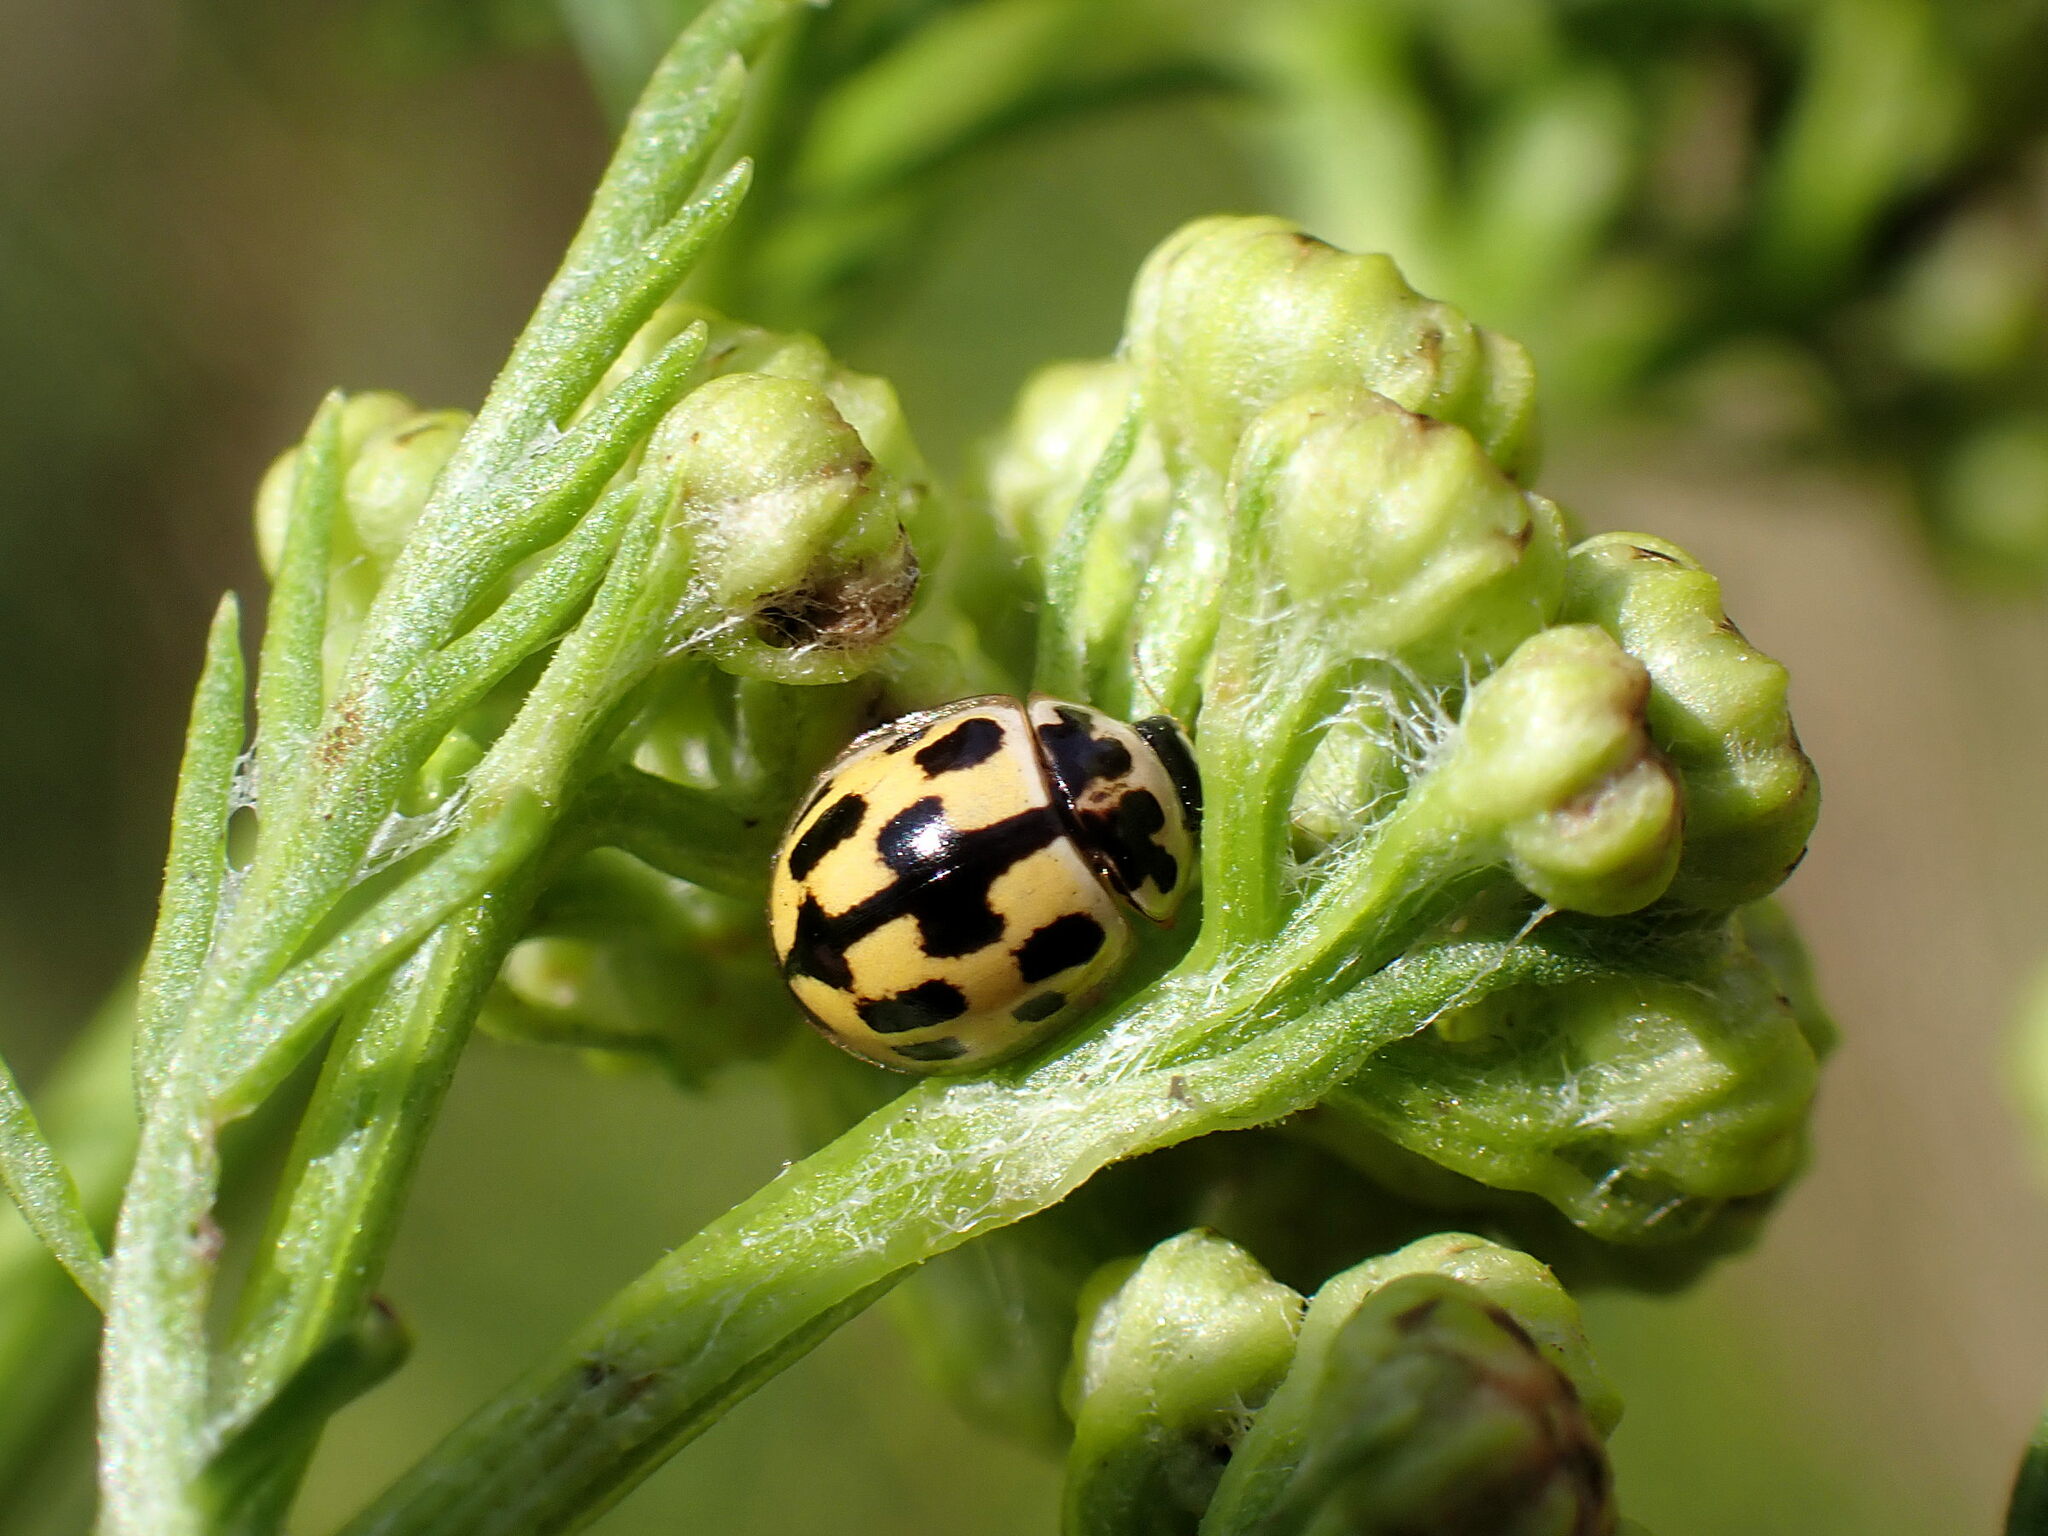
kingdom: Animalia
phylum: Arthropoda
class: Insecta
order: Coleoptera
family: Coccinellidae
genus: Propylaea
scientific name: Propylaea quatuordecimpunctata
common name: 14-spotted ladybird beetle
